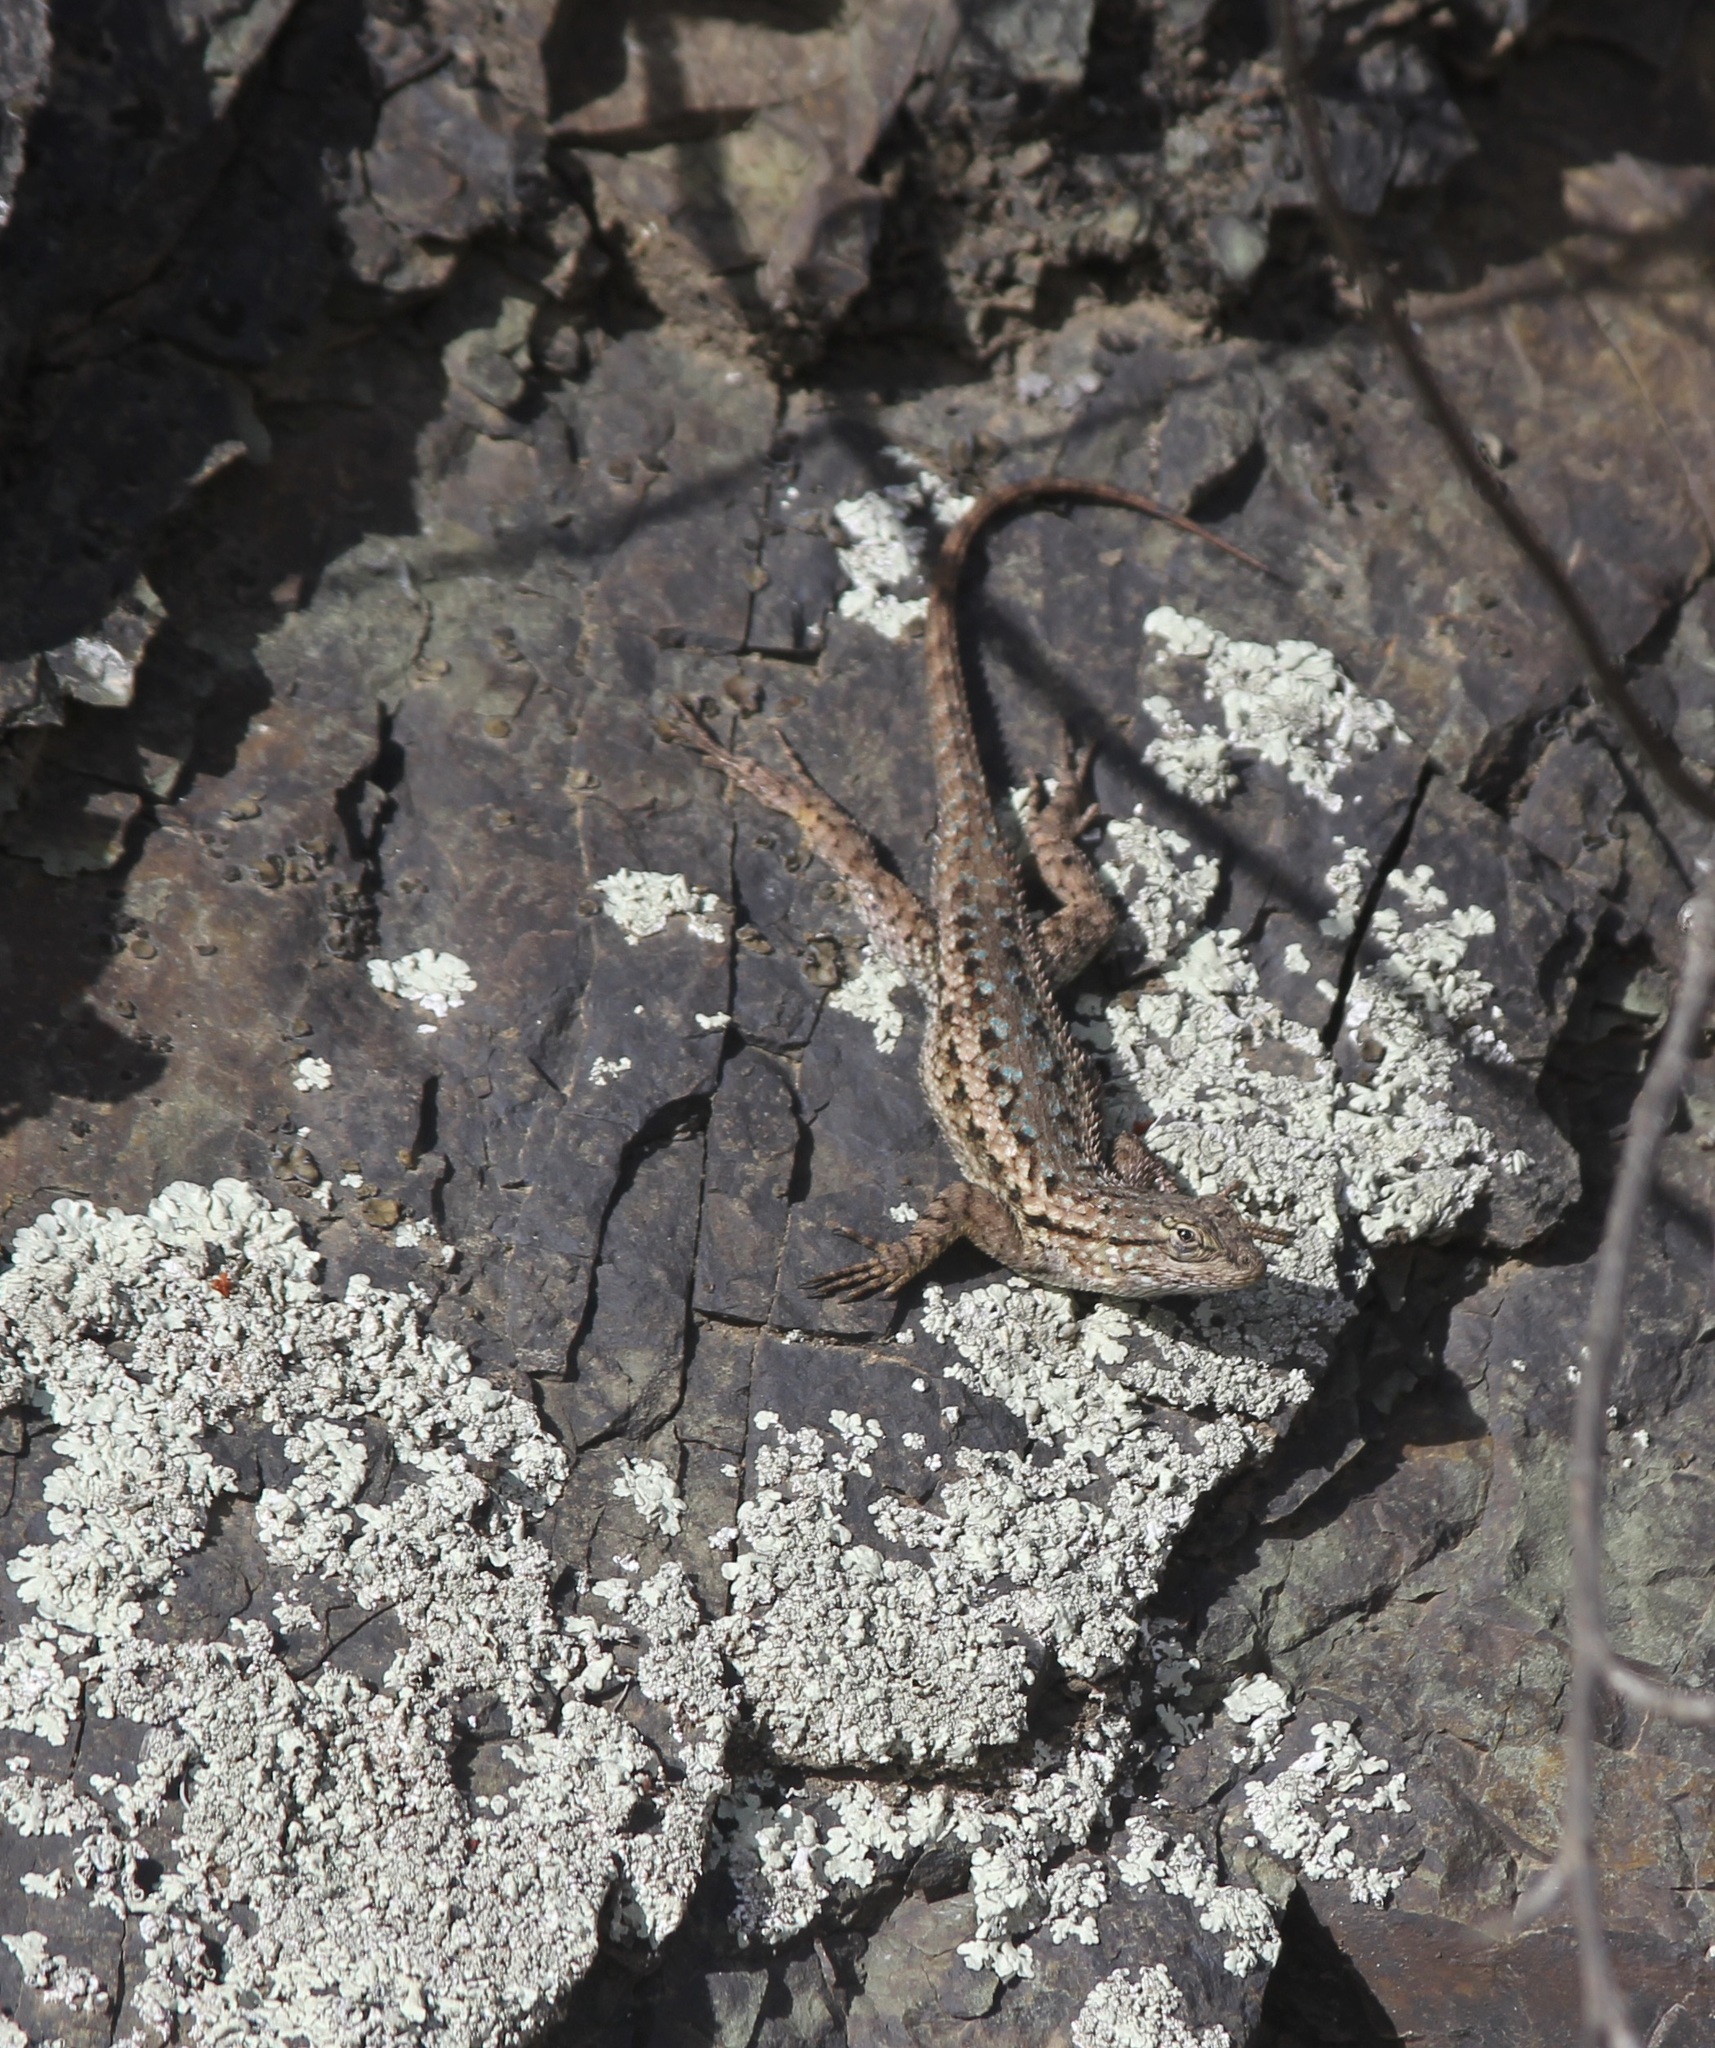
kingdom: Animalia
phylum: Chordata
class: Squamata
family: Phrynosomatidae
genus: Sceloporus
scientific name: Sceloporus occidentalis
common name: Western fence lizard
